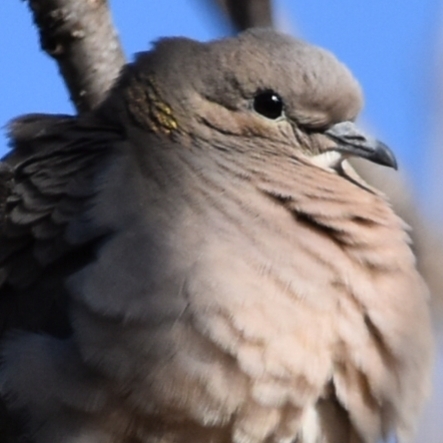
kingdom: Animalia
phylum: Chordata
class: Aves
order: Columbiformes
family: Columbidae
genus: Zenaida
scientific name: Zenaida auriculata
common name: Eared dove
